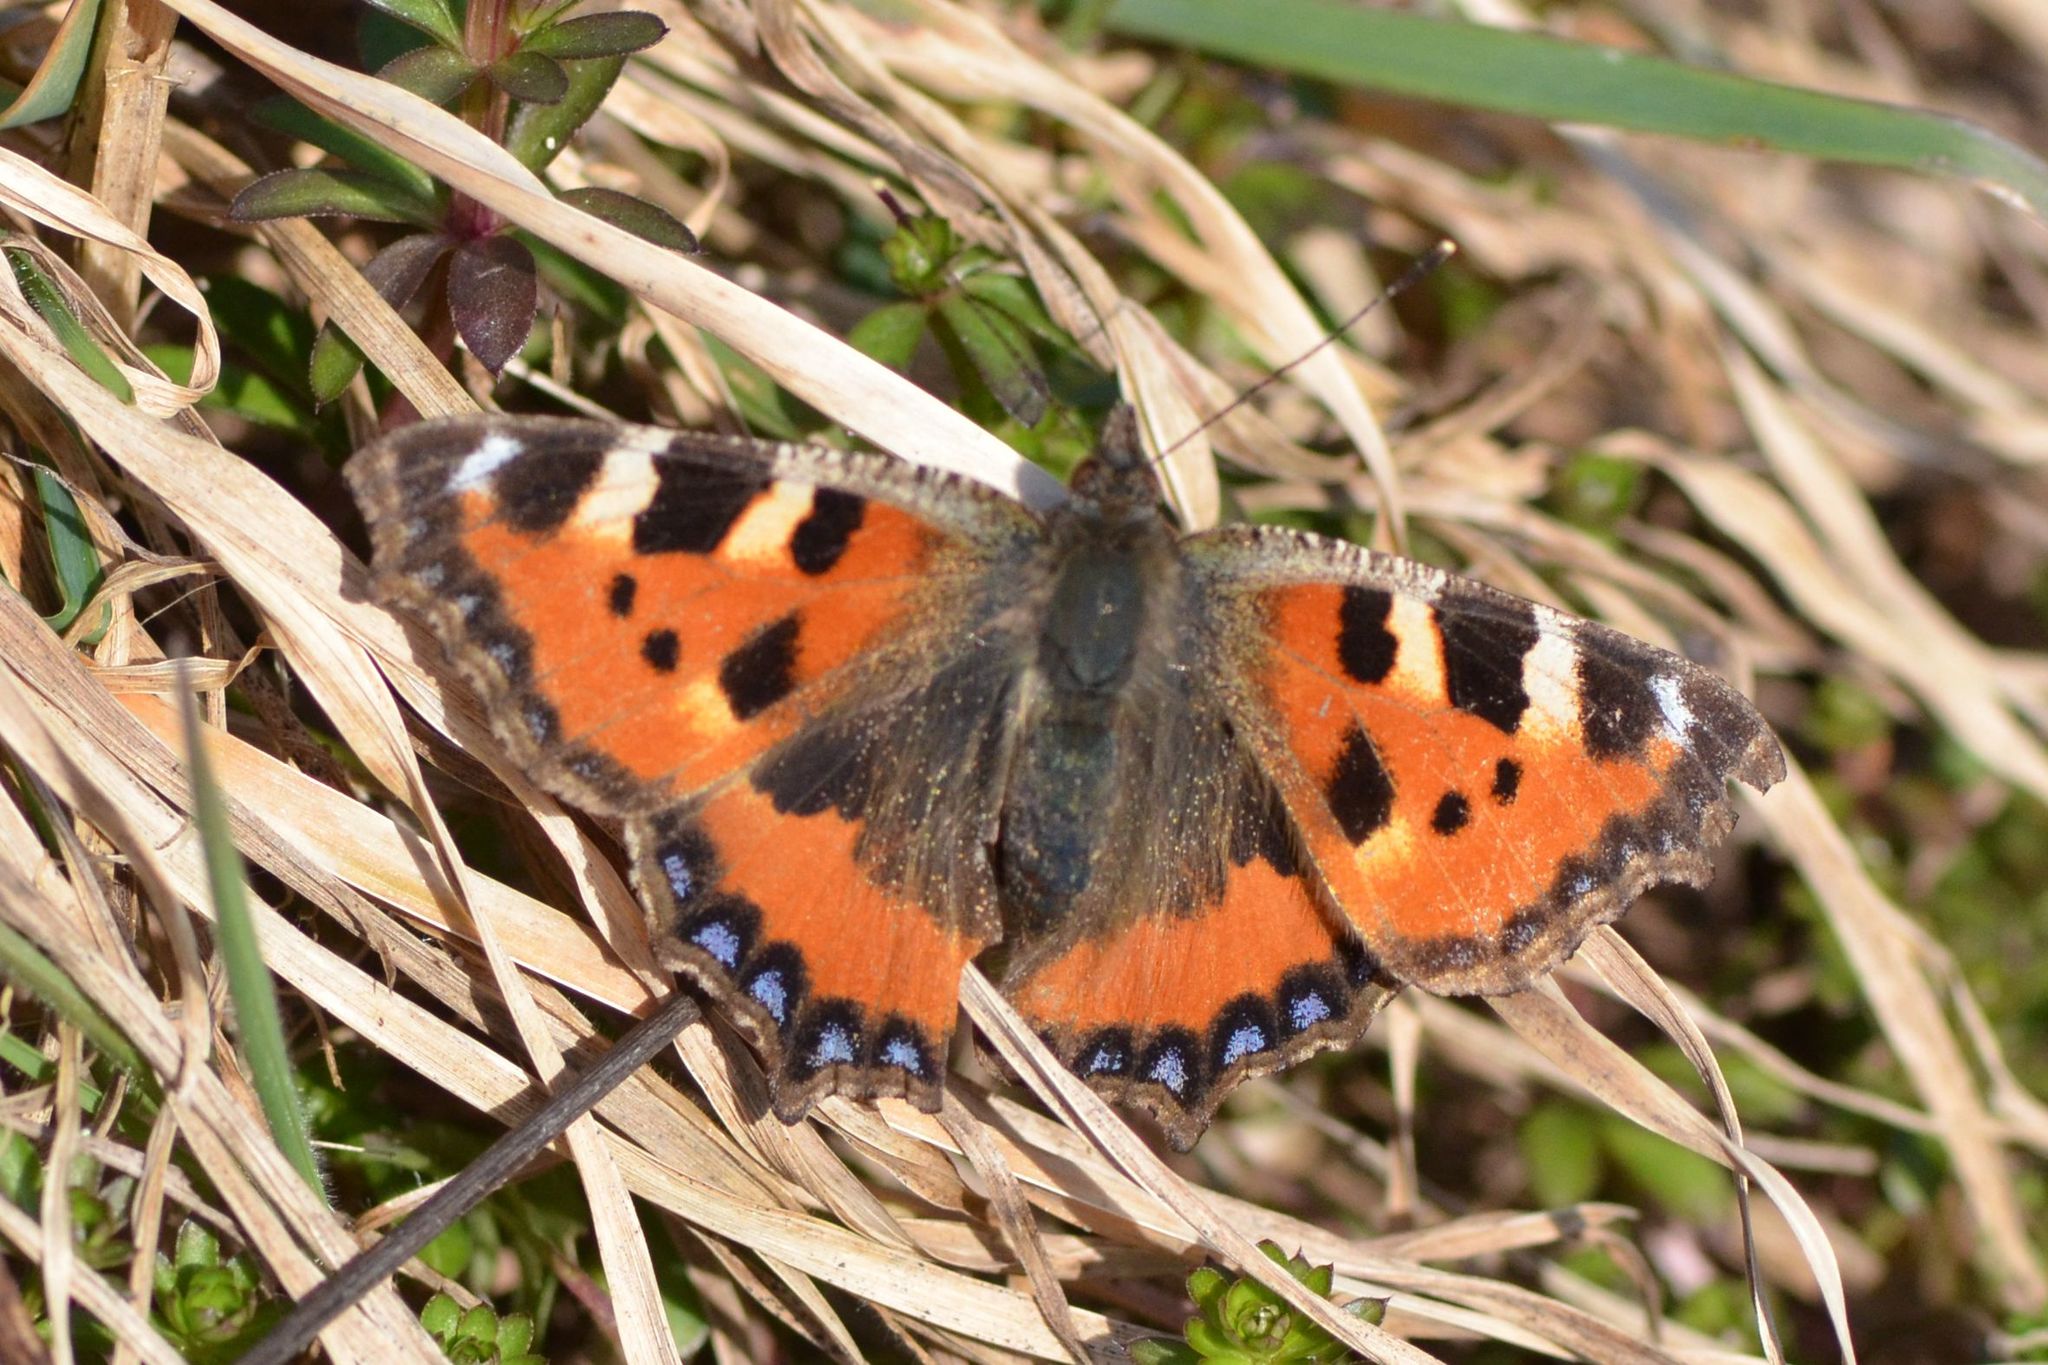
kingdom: Animalia
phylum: Arthropoda
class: Insecta
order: Lepidoptera
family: Nymphalidae
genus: Aglais
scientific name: Aglais urticae
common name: Small tortoiseshell
